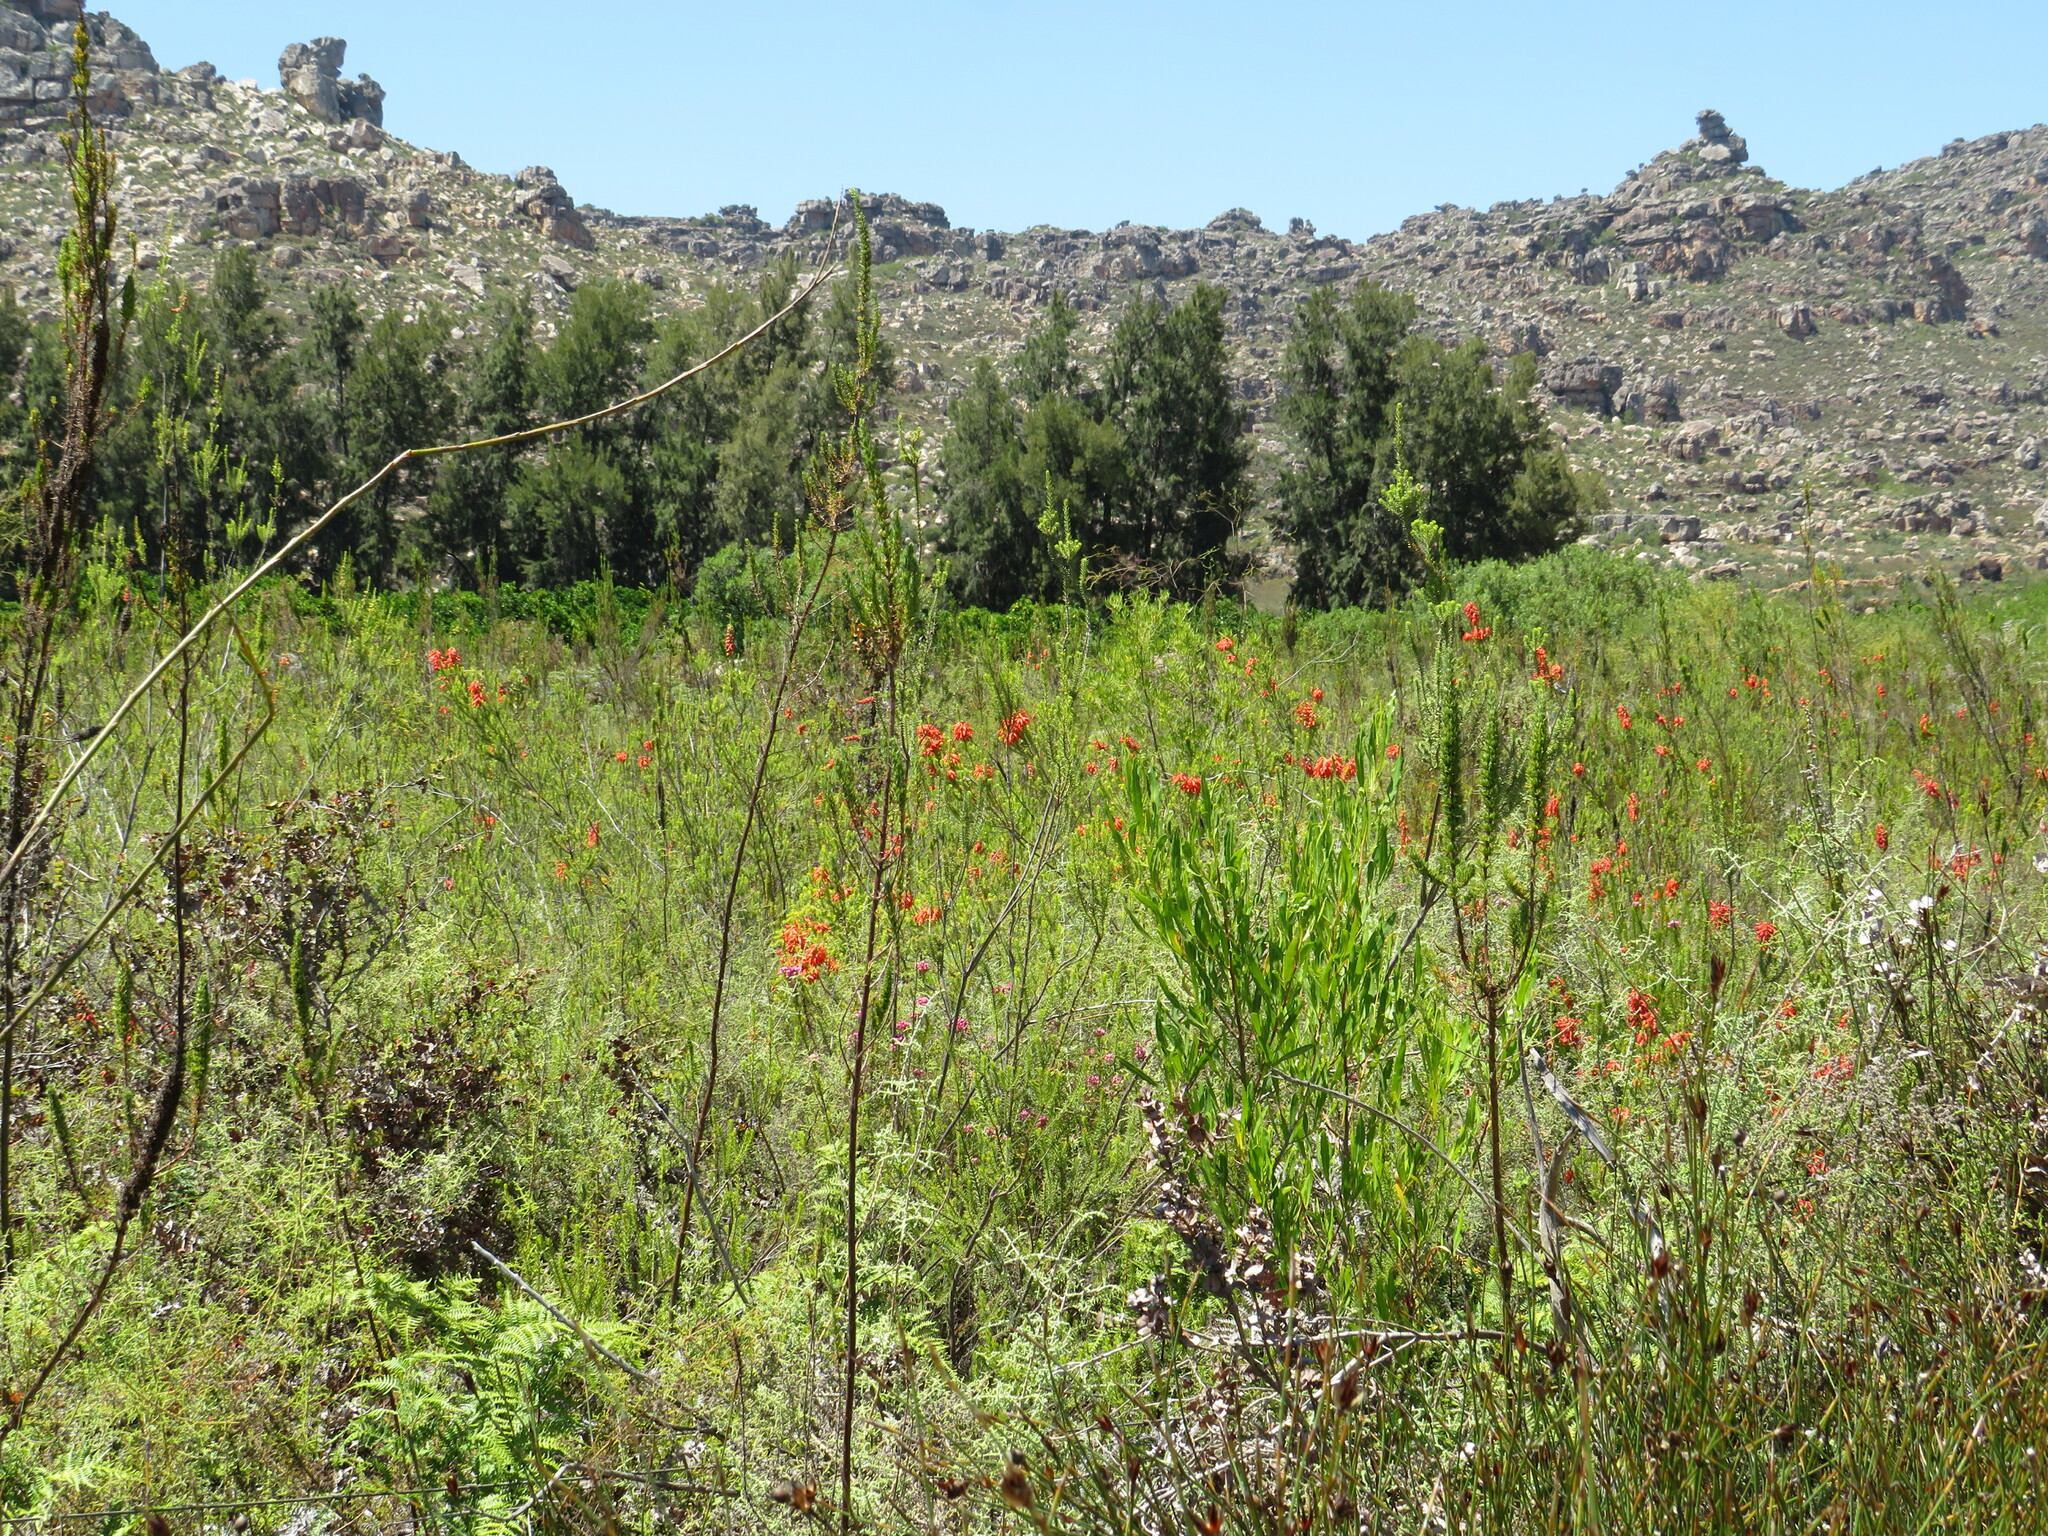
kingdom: Plantae
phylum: Tracheophyta
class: Magnoliopsida
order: Ericales
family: Ericaceae
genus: Erica
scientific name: Erica mammosa
